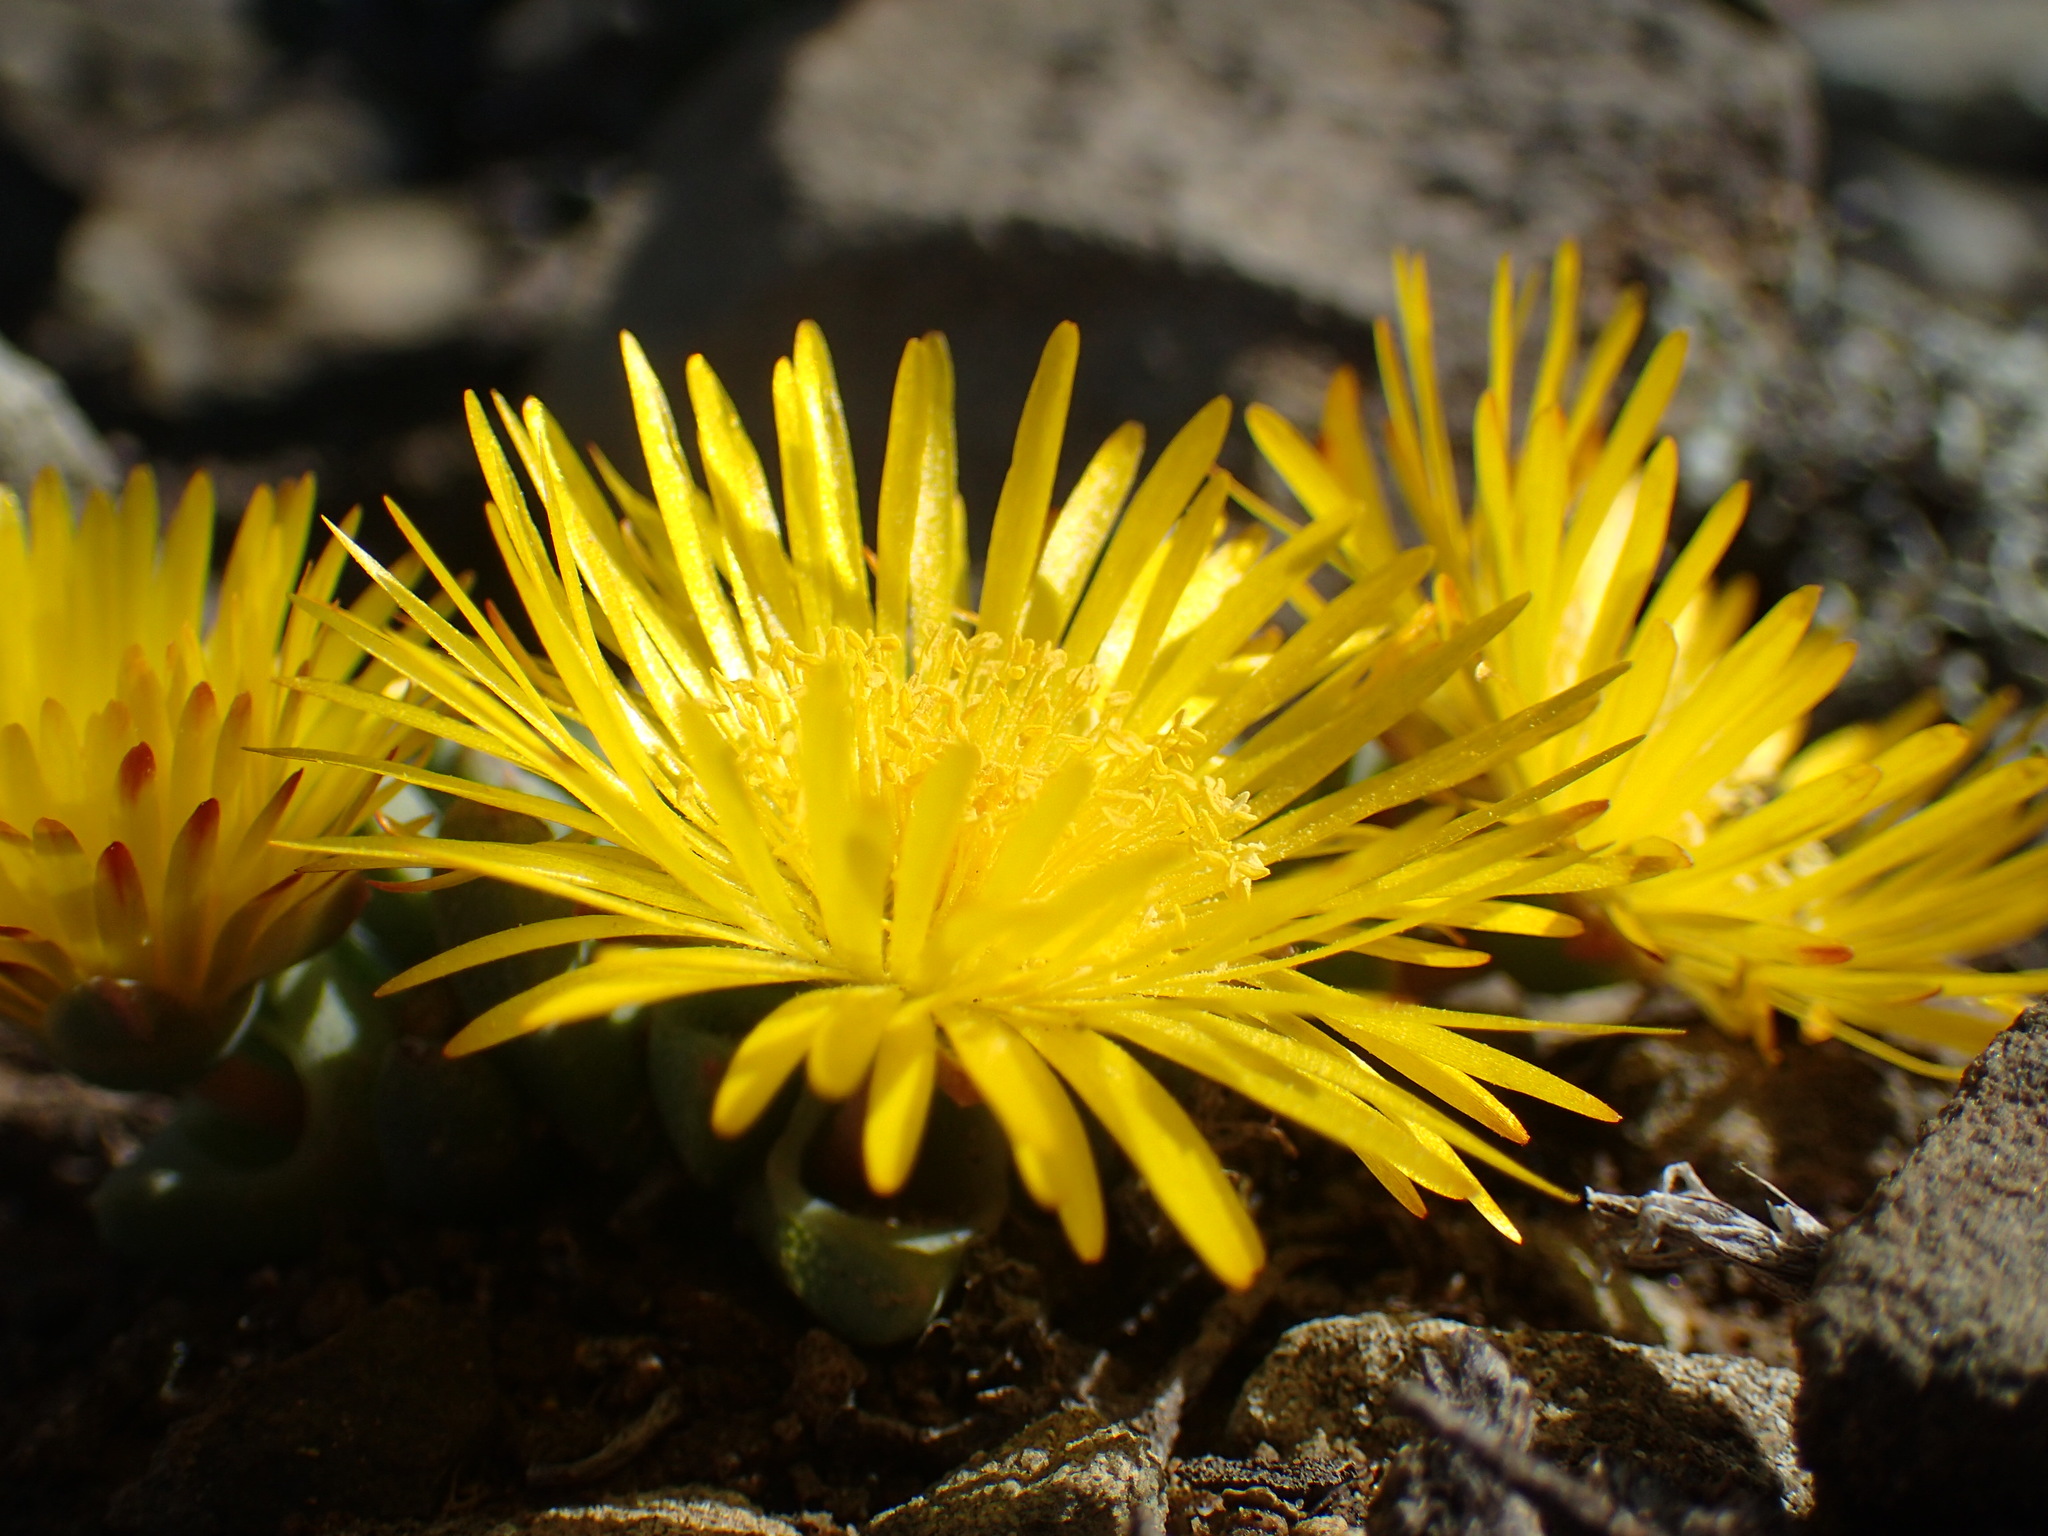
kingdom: Plantae
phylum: Tracheophyta
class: Magnoliopsida
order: Caryophyllales
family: Aizoaceae
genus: Cheiridopsis
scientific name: Cheiridopsis namaquensis
